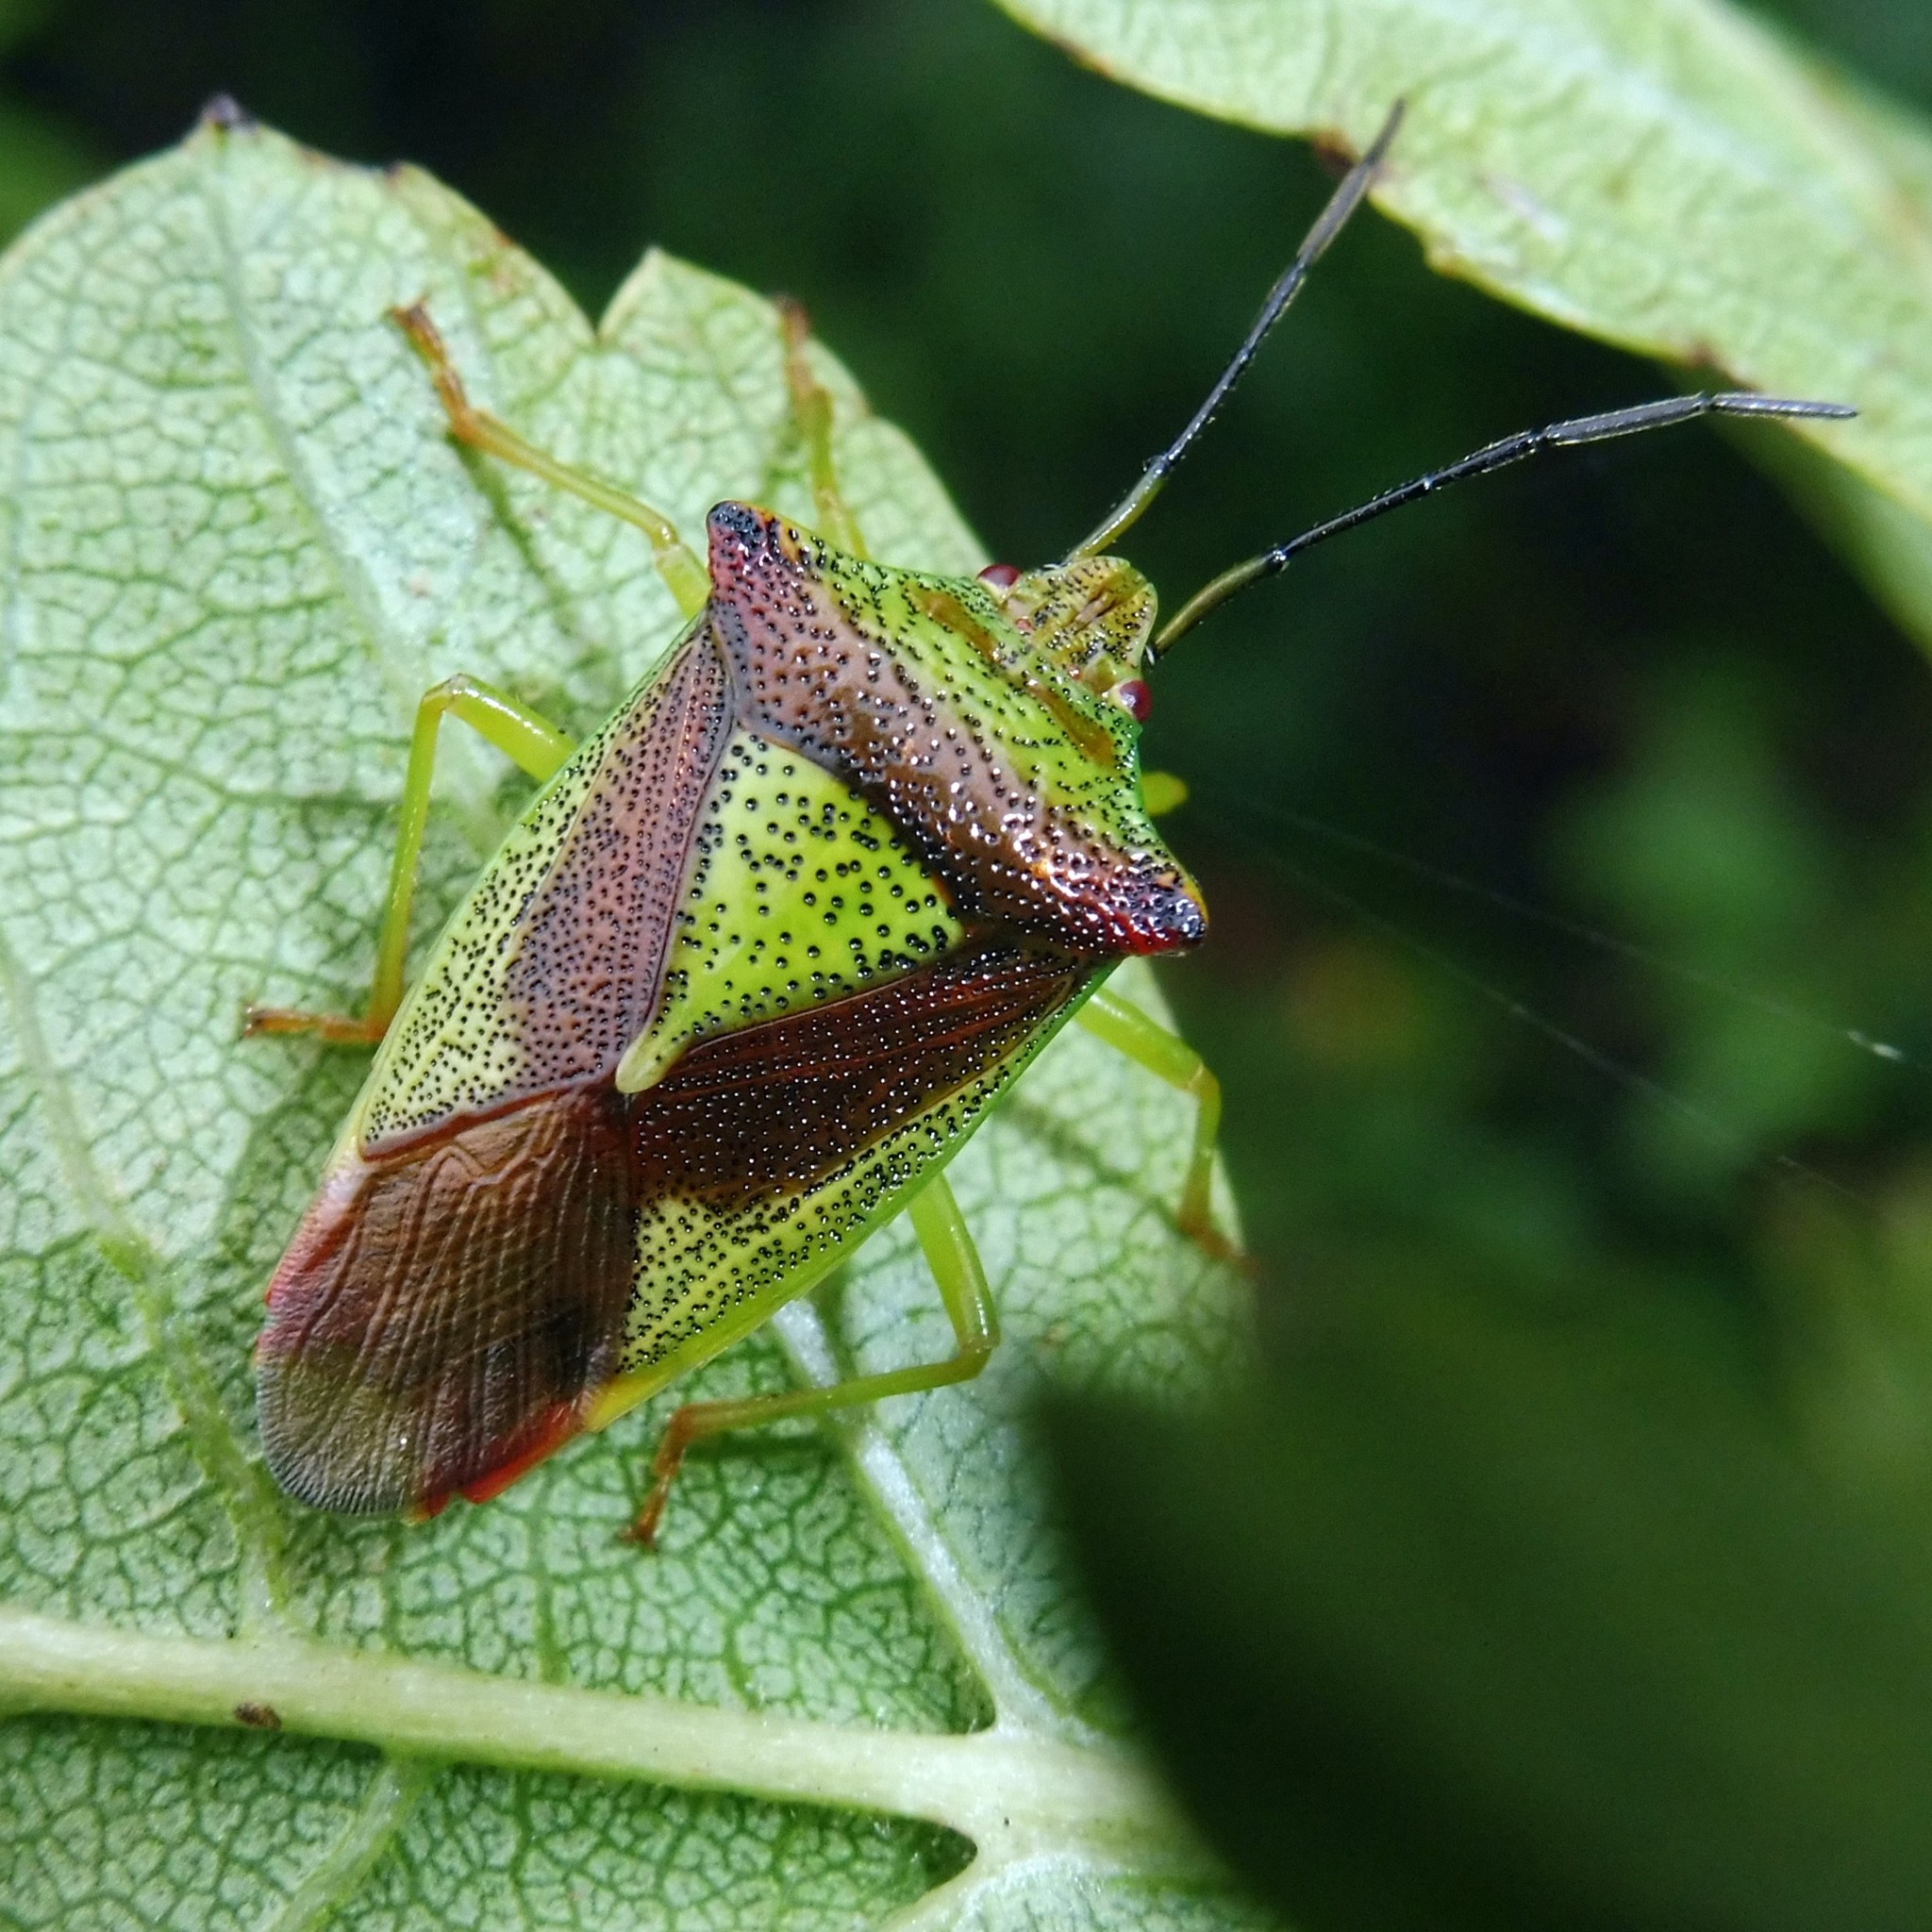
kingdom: Animalia
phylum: Arthropoda
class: Insecta
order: Hemiptera
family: Acanthosomatidae
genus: Acanthosoma
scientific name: Acanthosoma haemorrhoidale
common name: Hawthorn shieldbug
